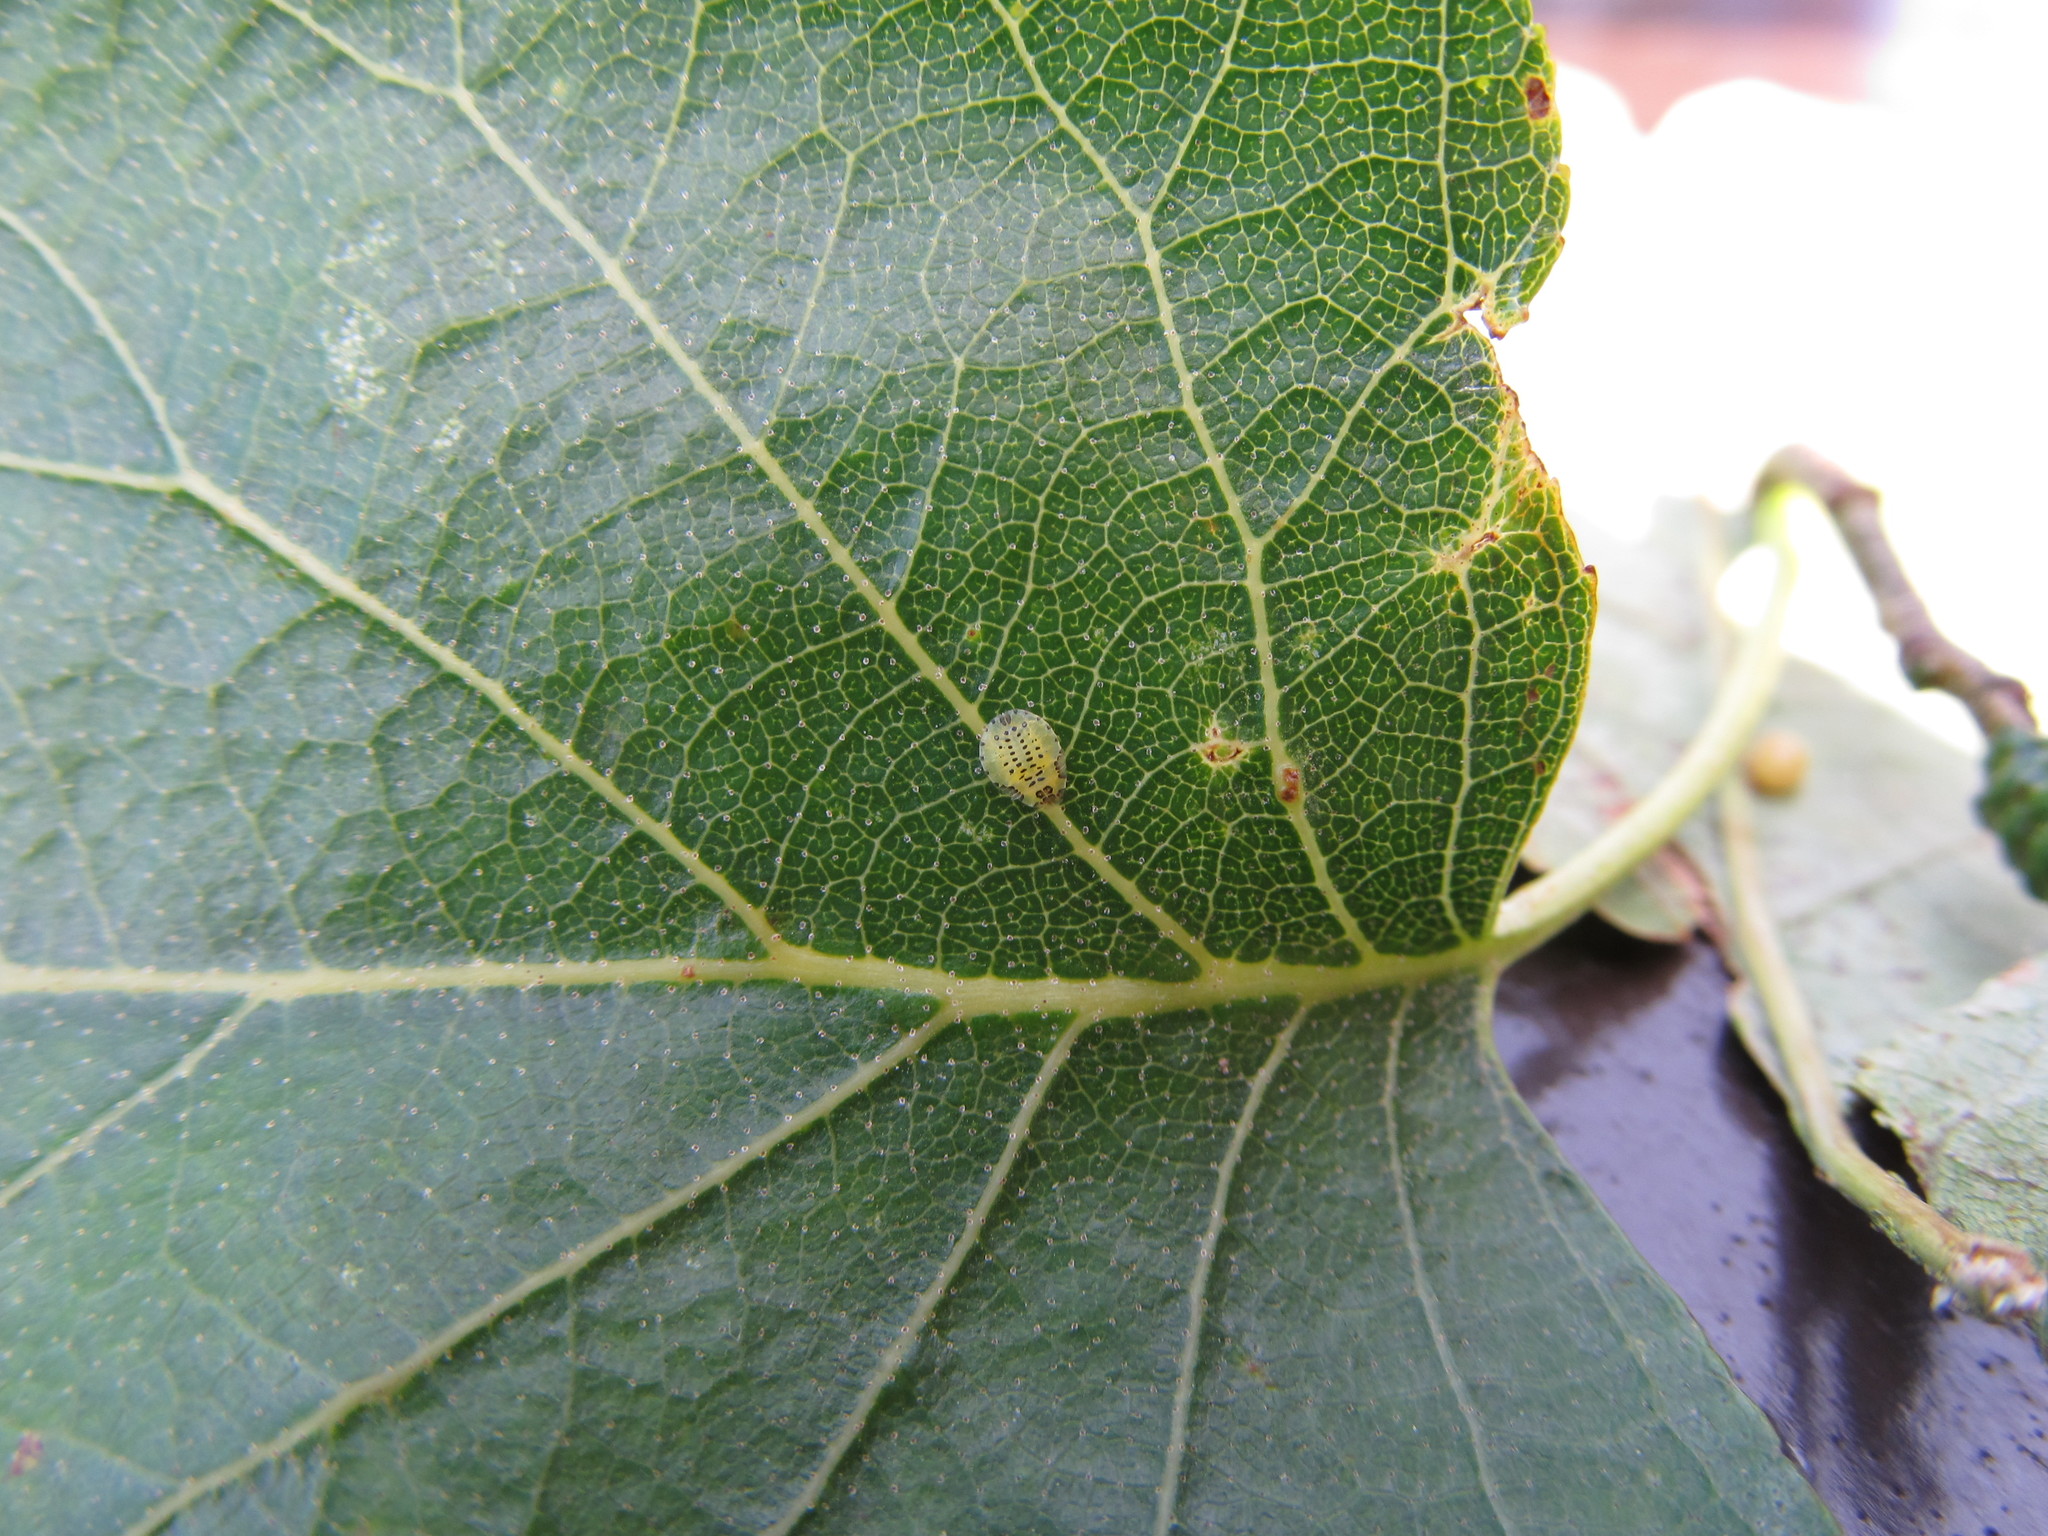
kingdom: Animalia
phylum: Arthropoda
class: Insecta
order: Hemiptera
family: Aphididae
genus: Crypturaphis
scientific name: Crypturaphis grassii
